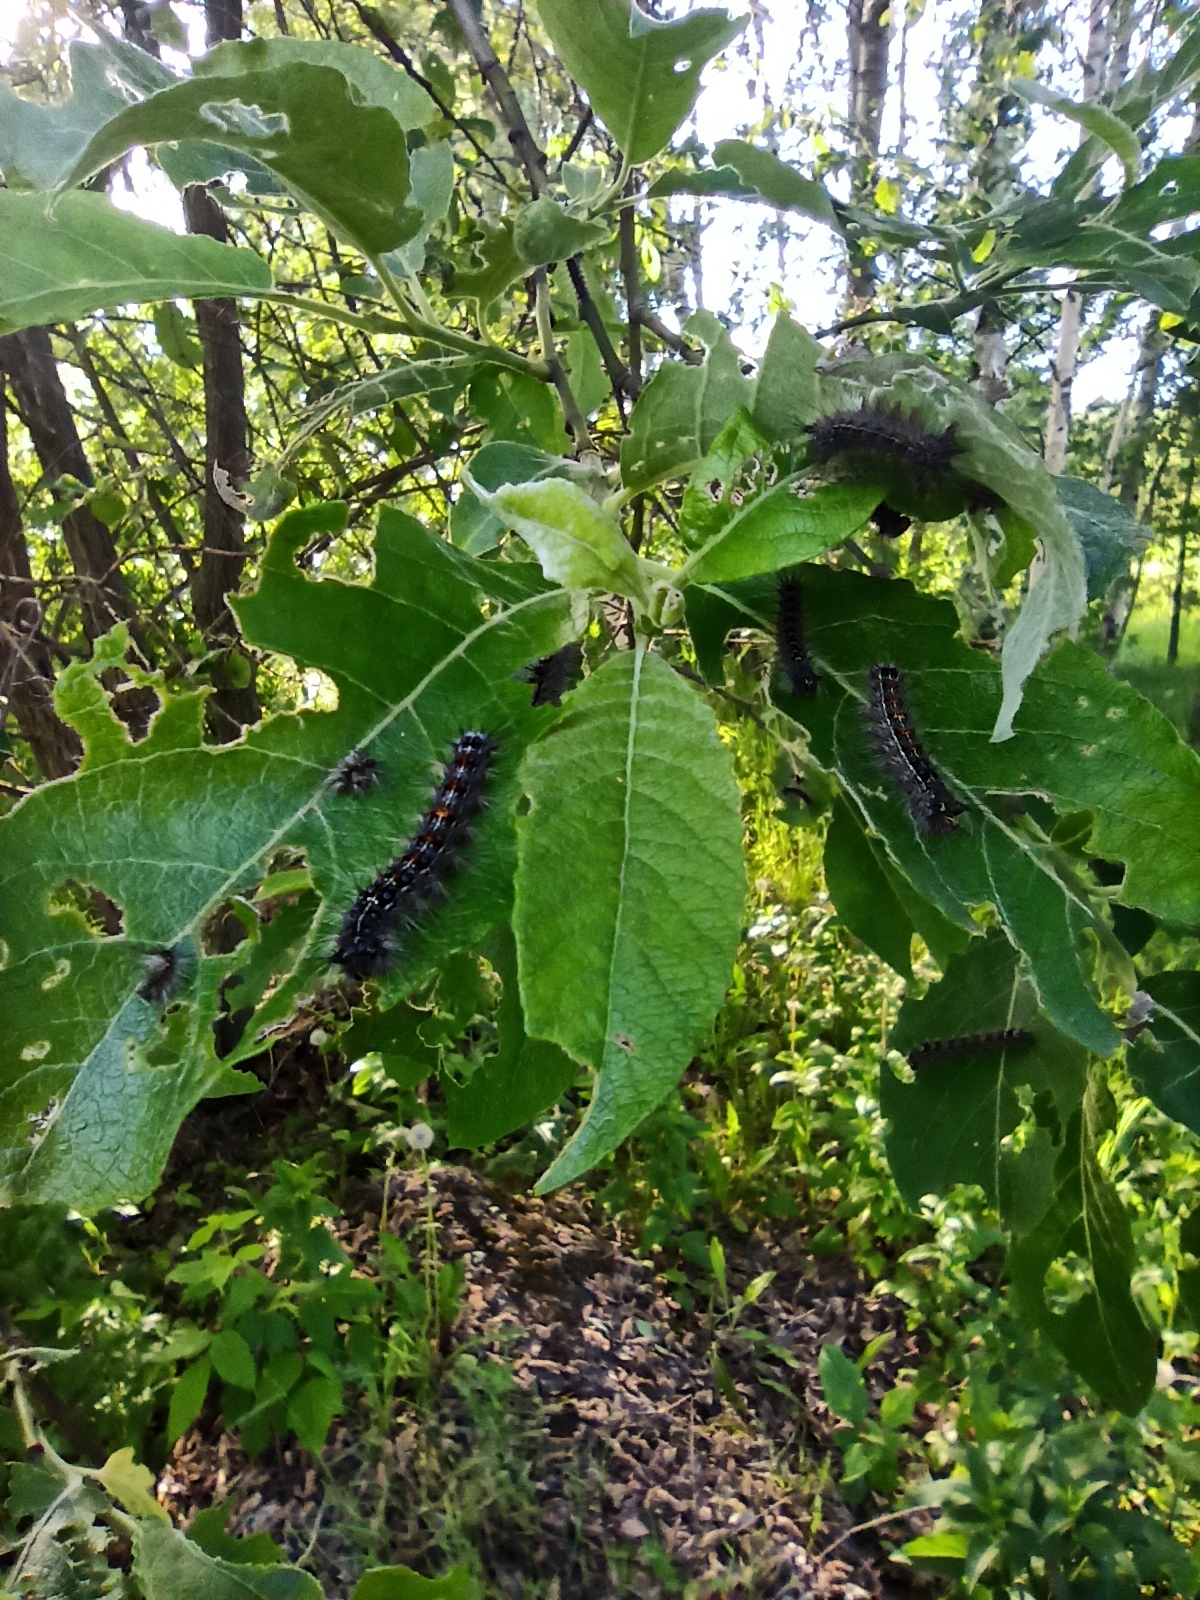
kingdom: Animalia
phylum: Arthropoda
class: Insecta
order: Lepidoptera
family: Erebidae
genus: Lymantria
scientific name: Lymantria dispar
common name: Gypsy moth
